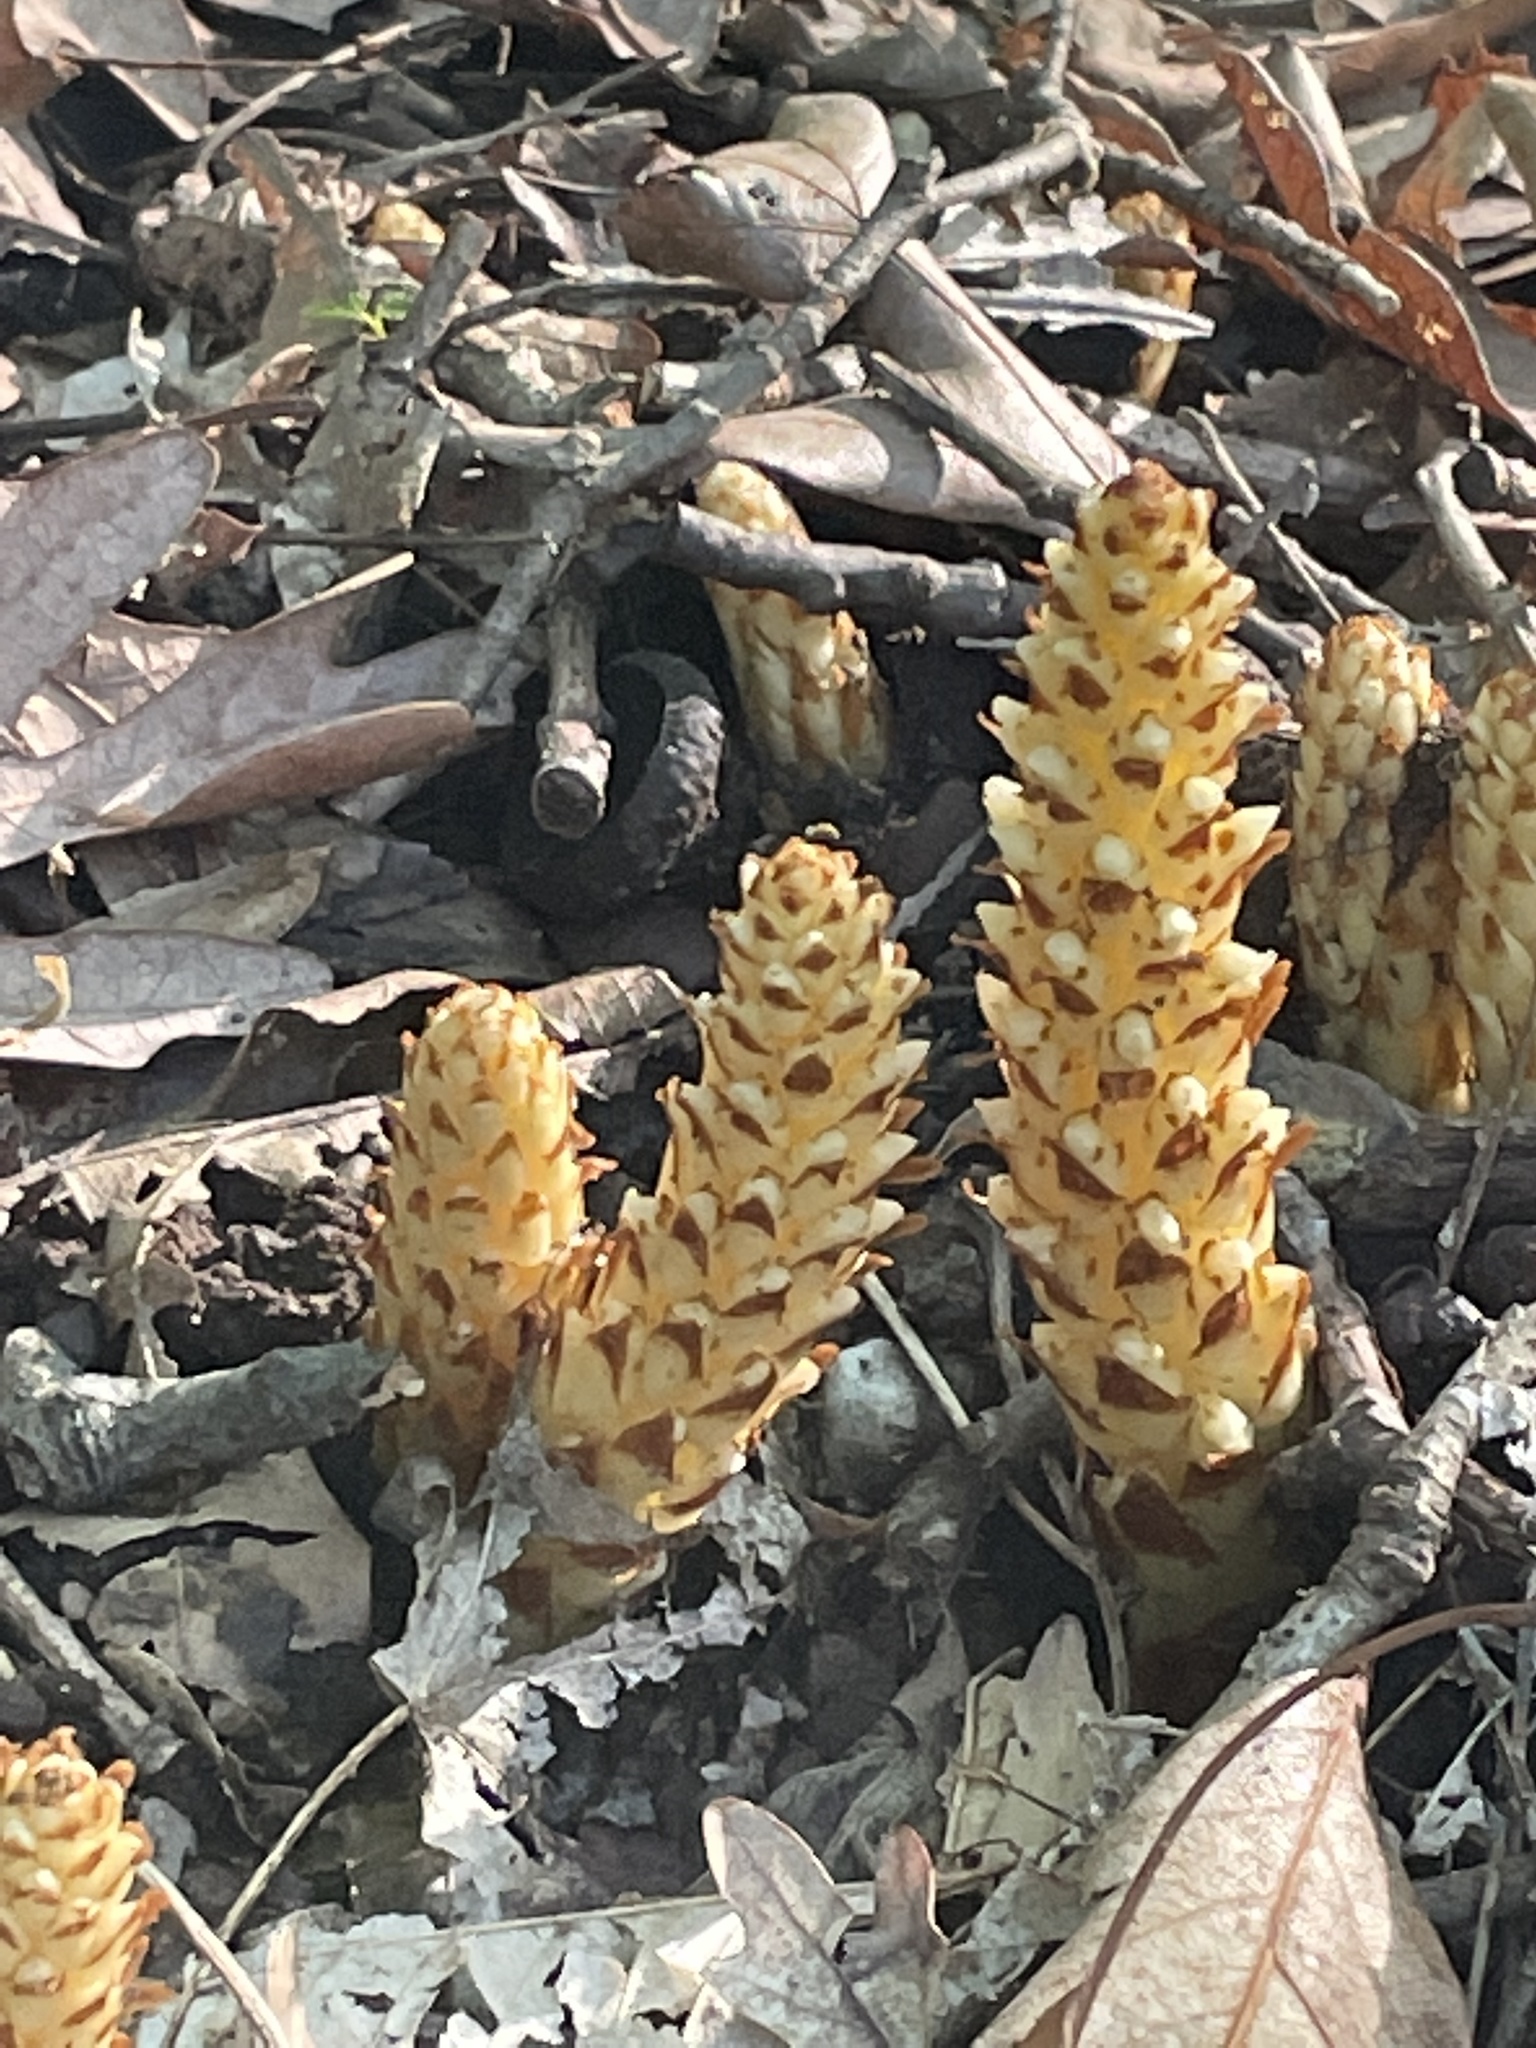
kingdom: Plantae
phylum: Tracheophyta
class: Magnoliopsida
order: Lamiales
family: Orobanchaceae
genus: Conopholis
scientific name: Conopholis americana
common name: American cancer-root
